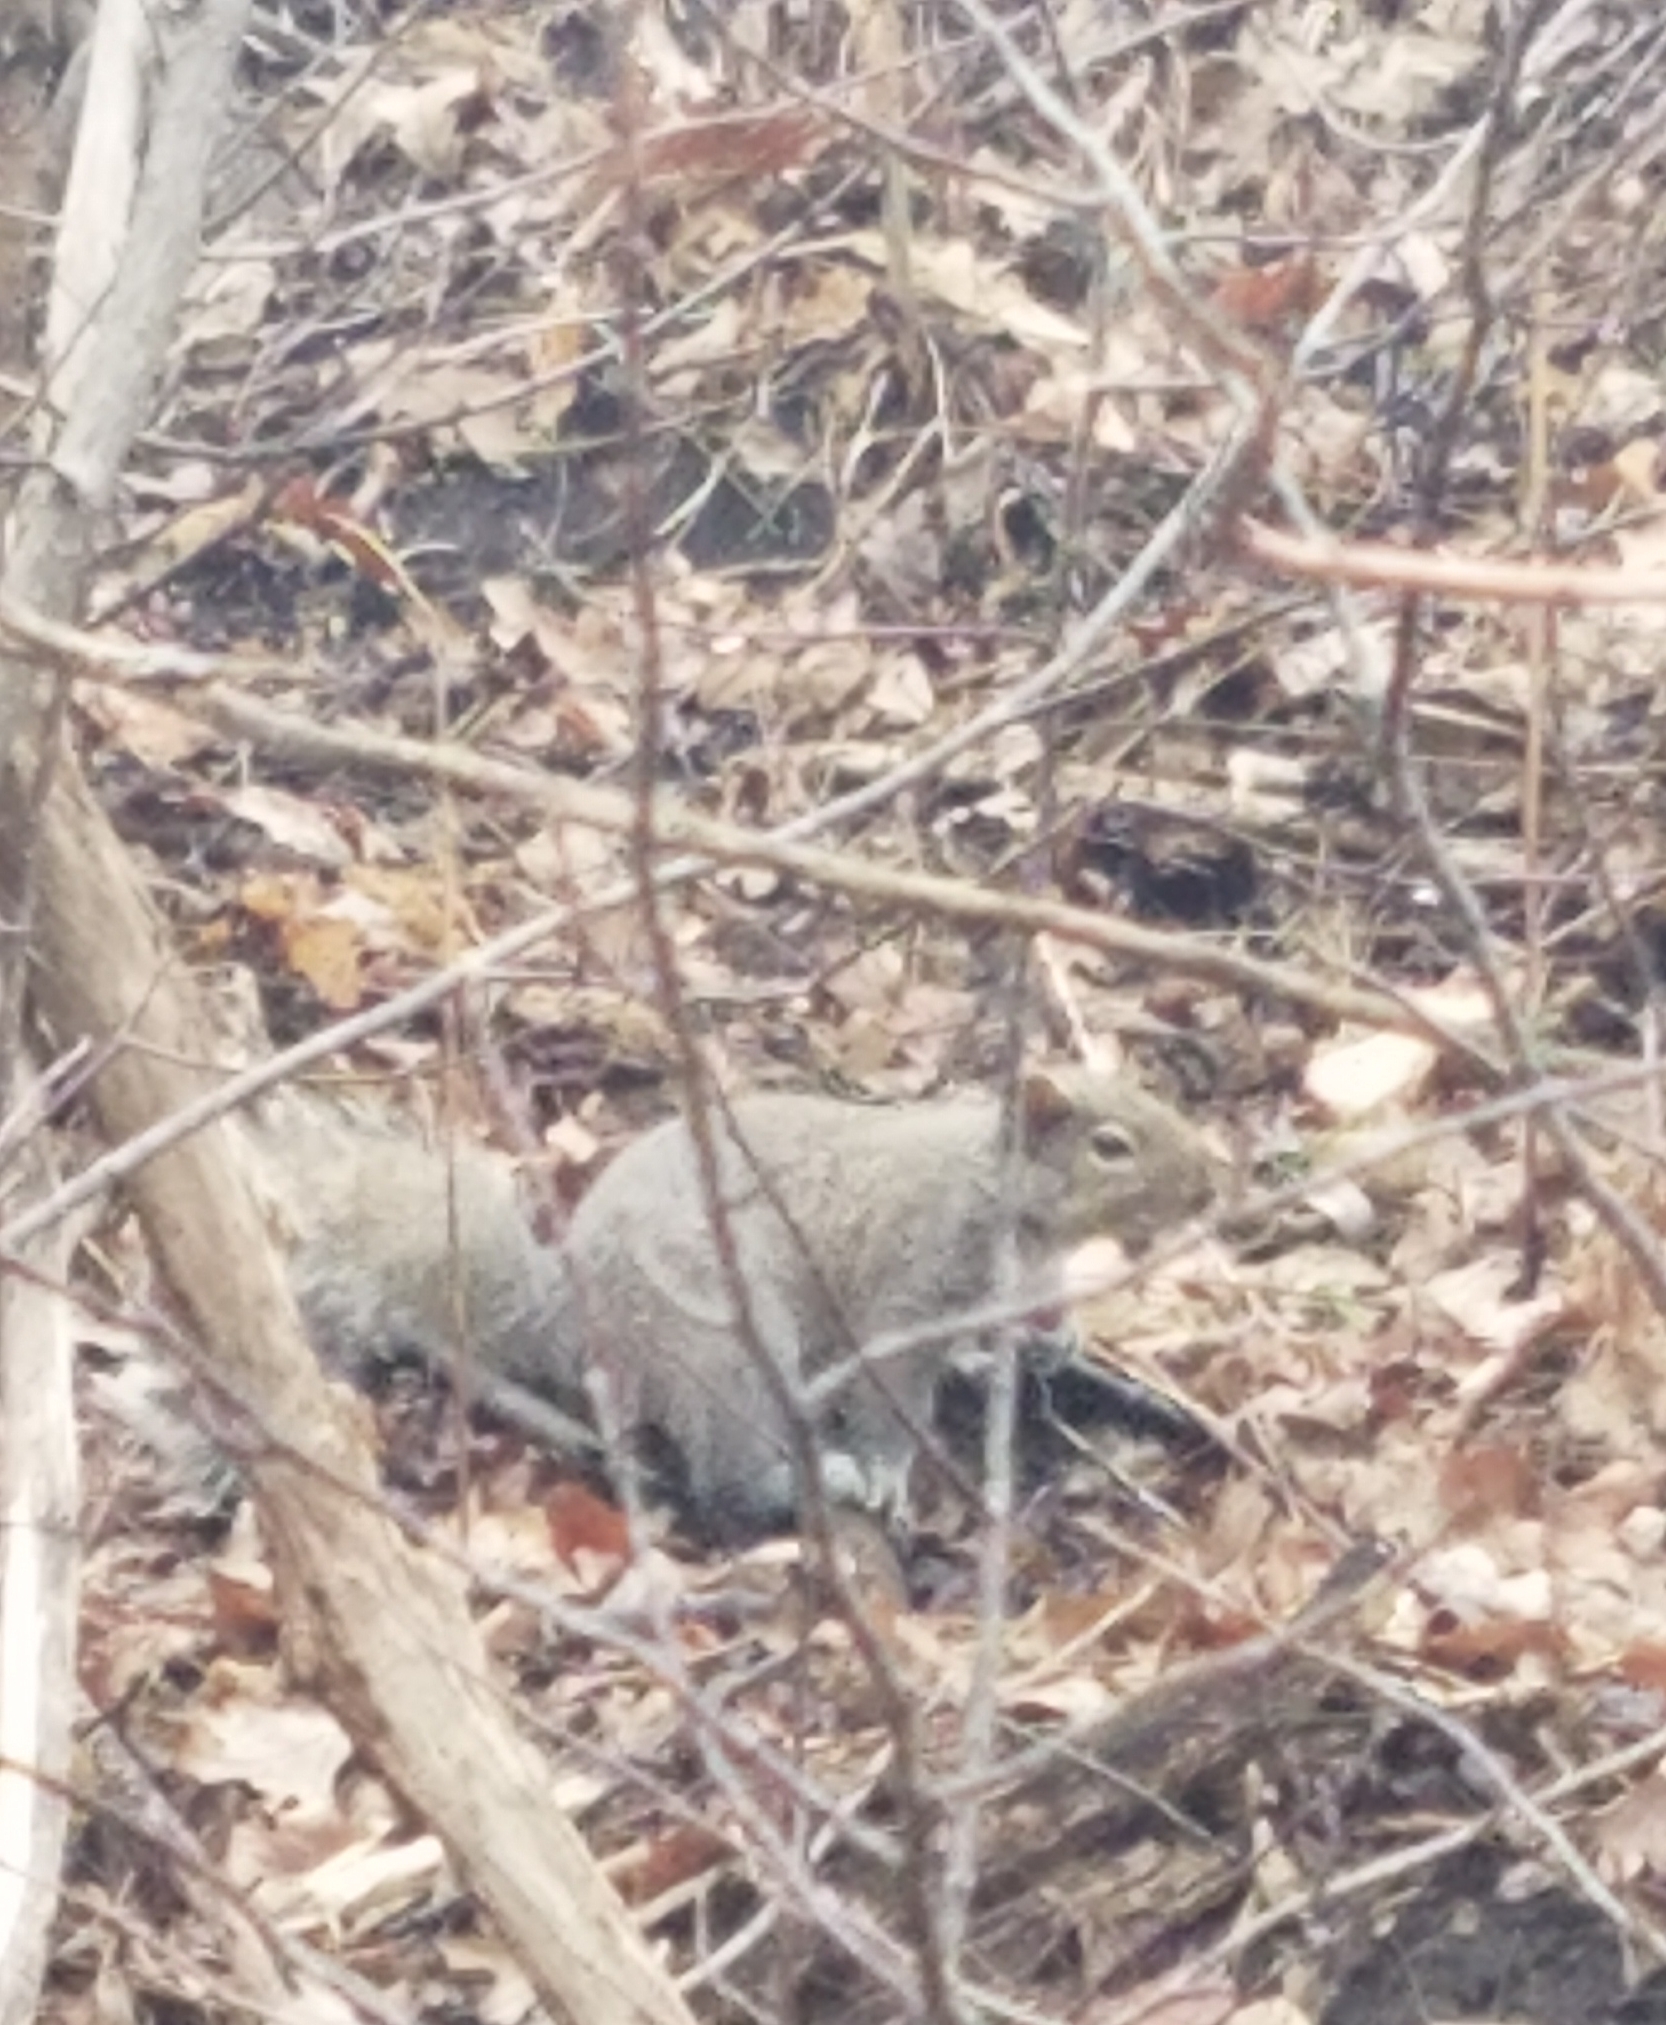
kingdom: Animalia
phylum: Chordata
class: Mammalia
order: Rodentia
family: Sciuridae
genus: Sciurus
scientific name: Sciurus carolinensis
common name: Eastern gray squirrel
